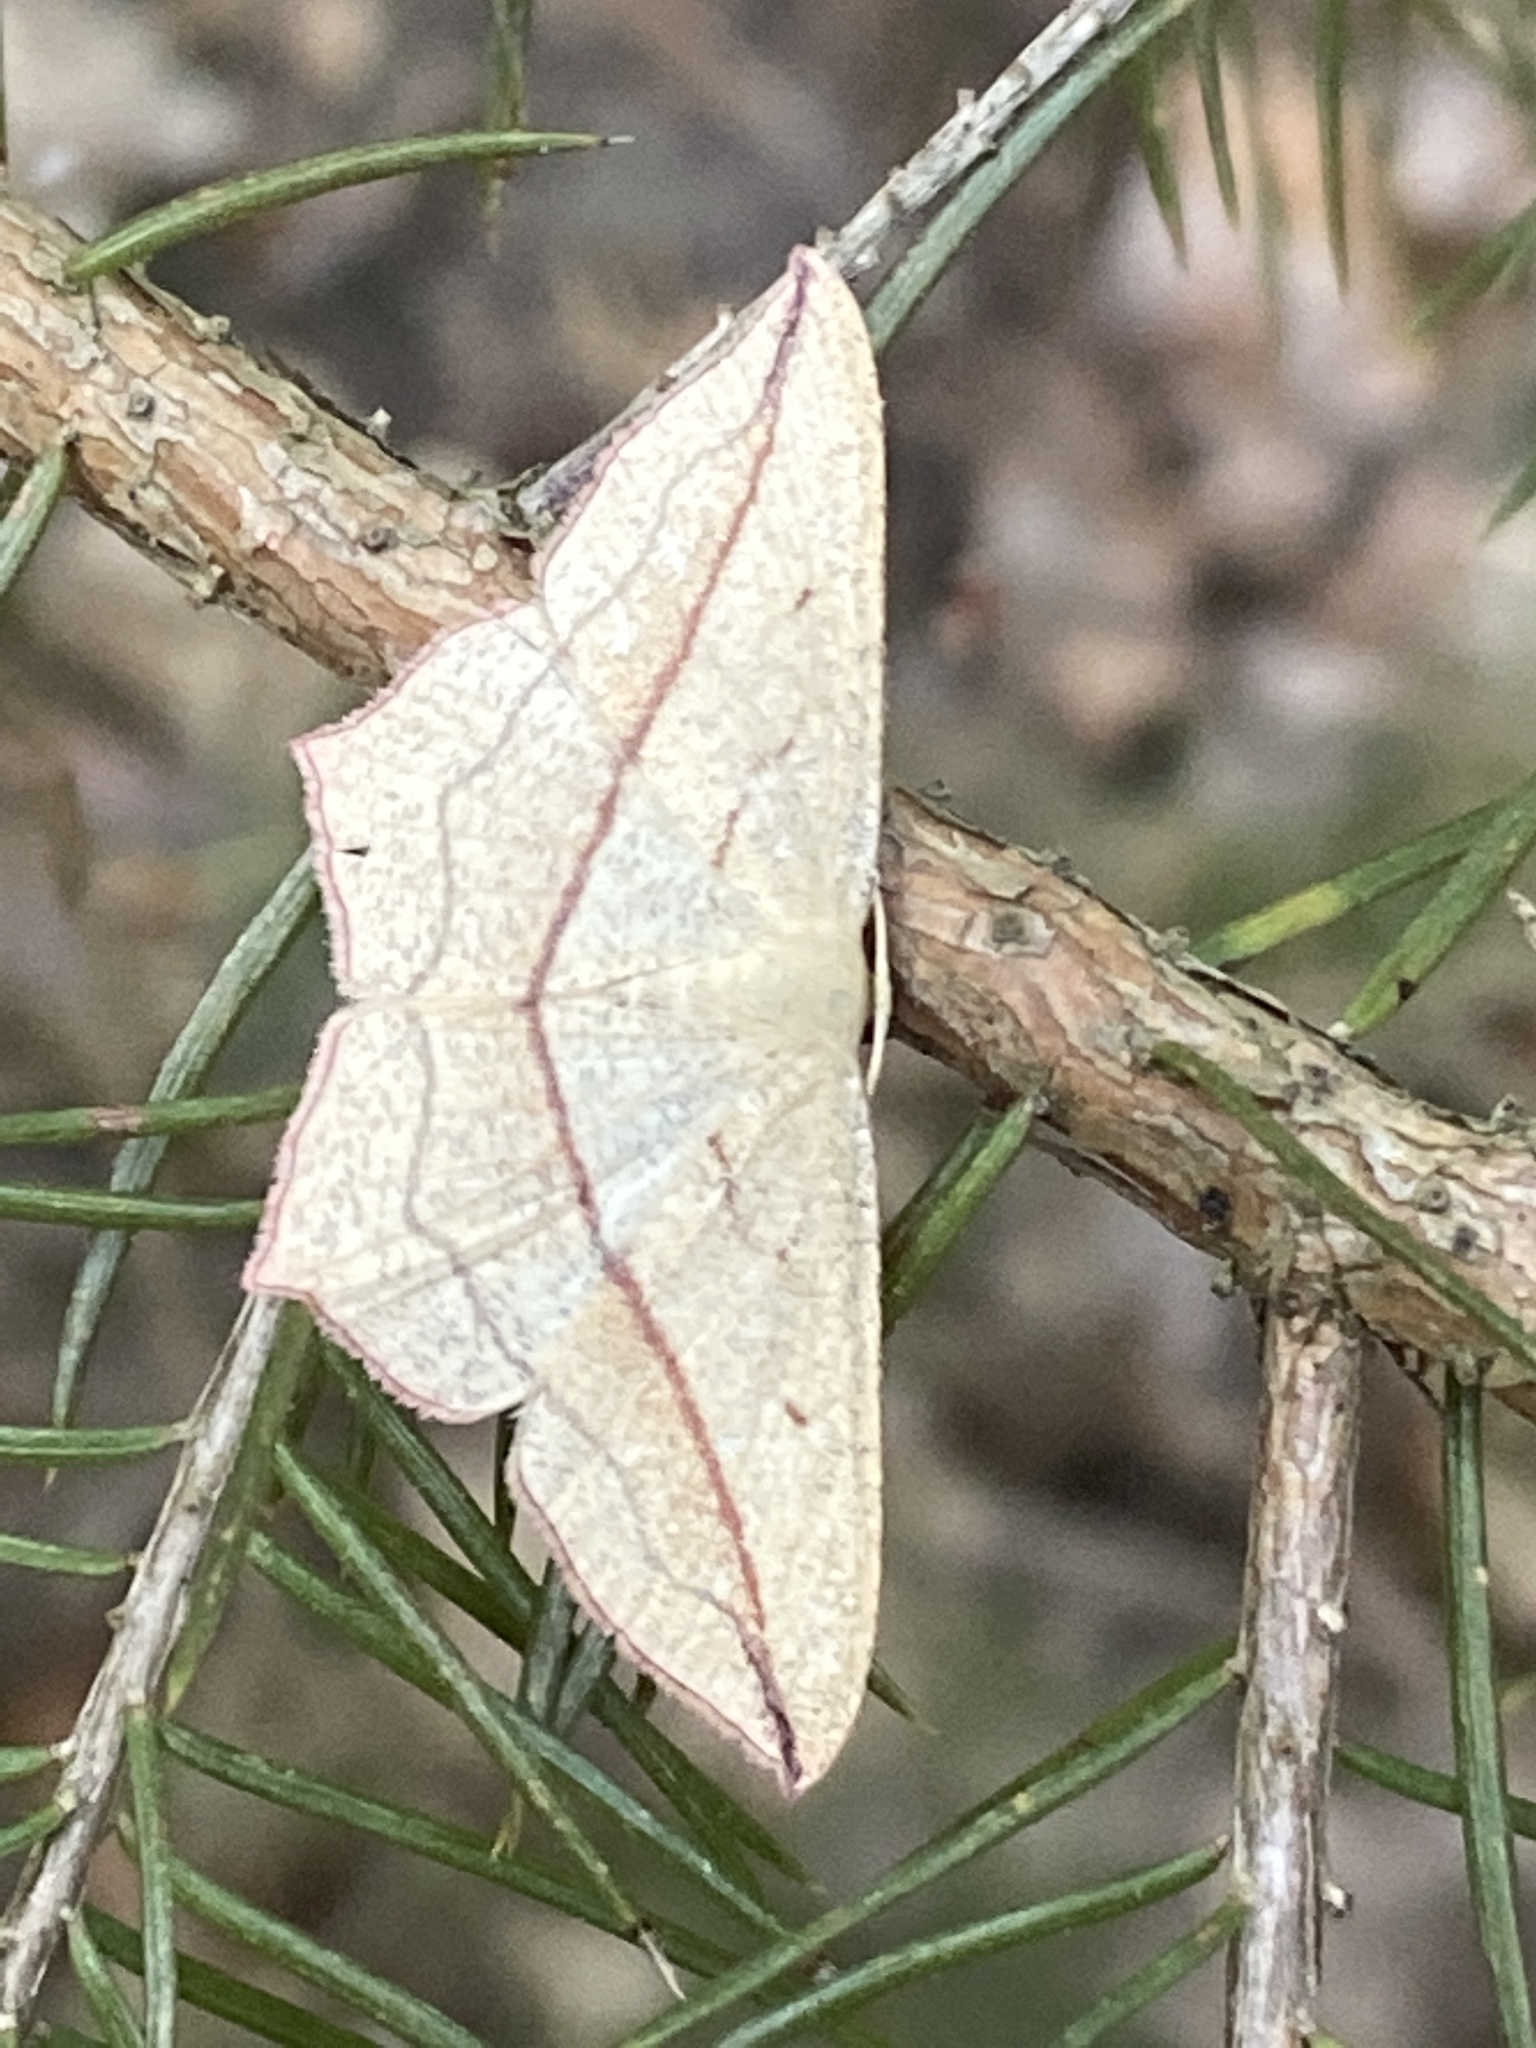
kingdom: Animalia
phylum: Arthropoda
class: Insecta
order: Lepidoptera
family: Geometridae
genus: Timandra
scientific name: Timandra comae
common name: Blood-vein
